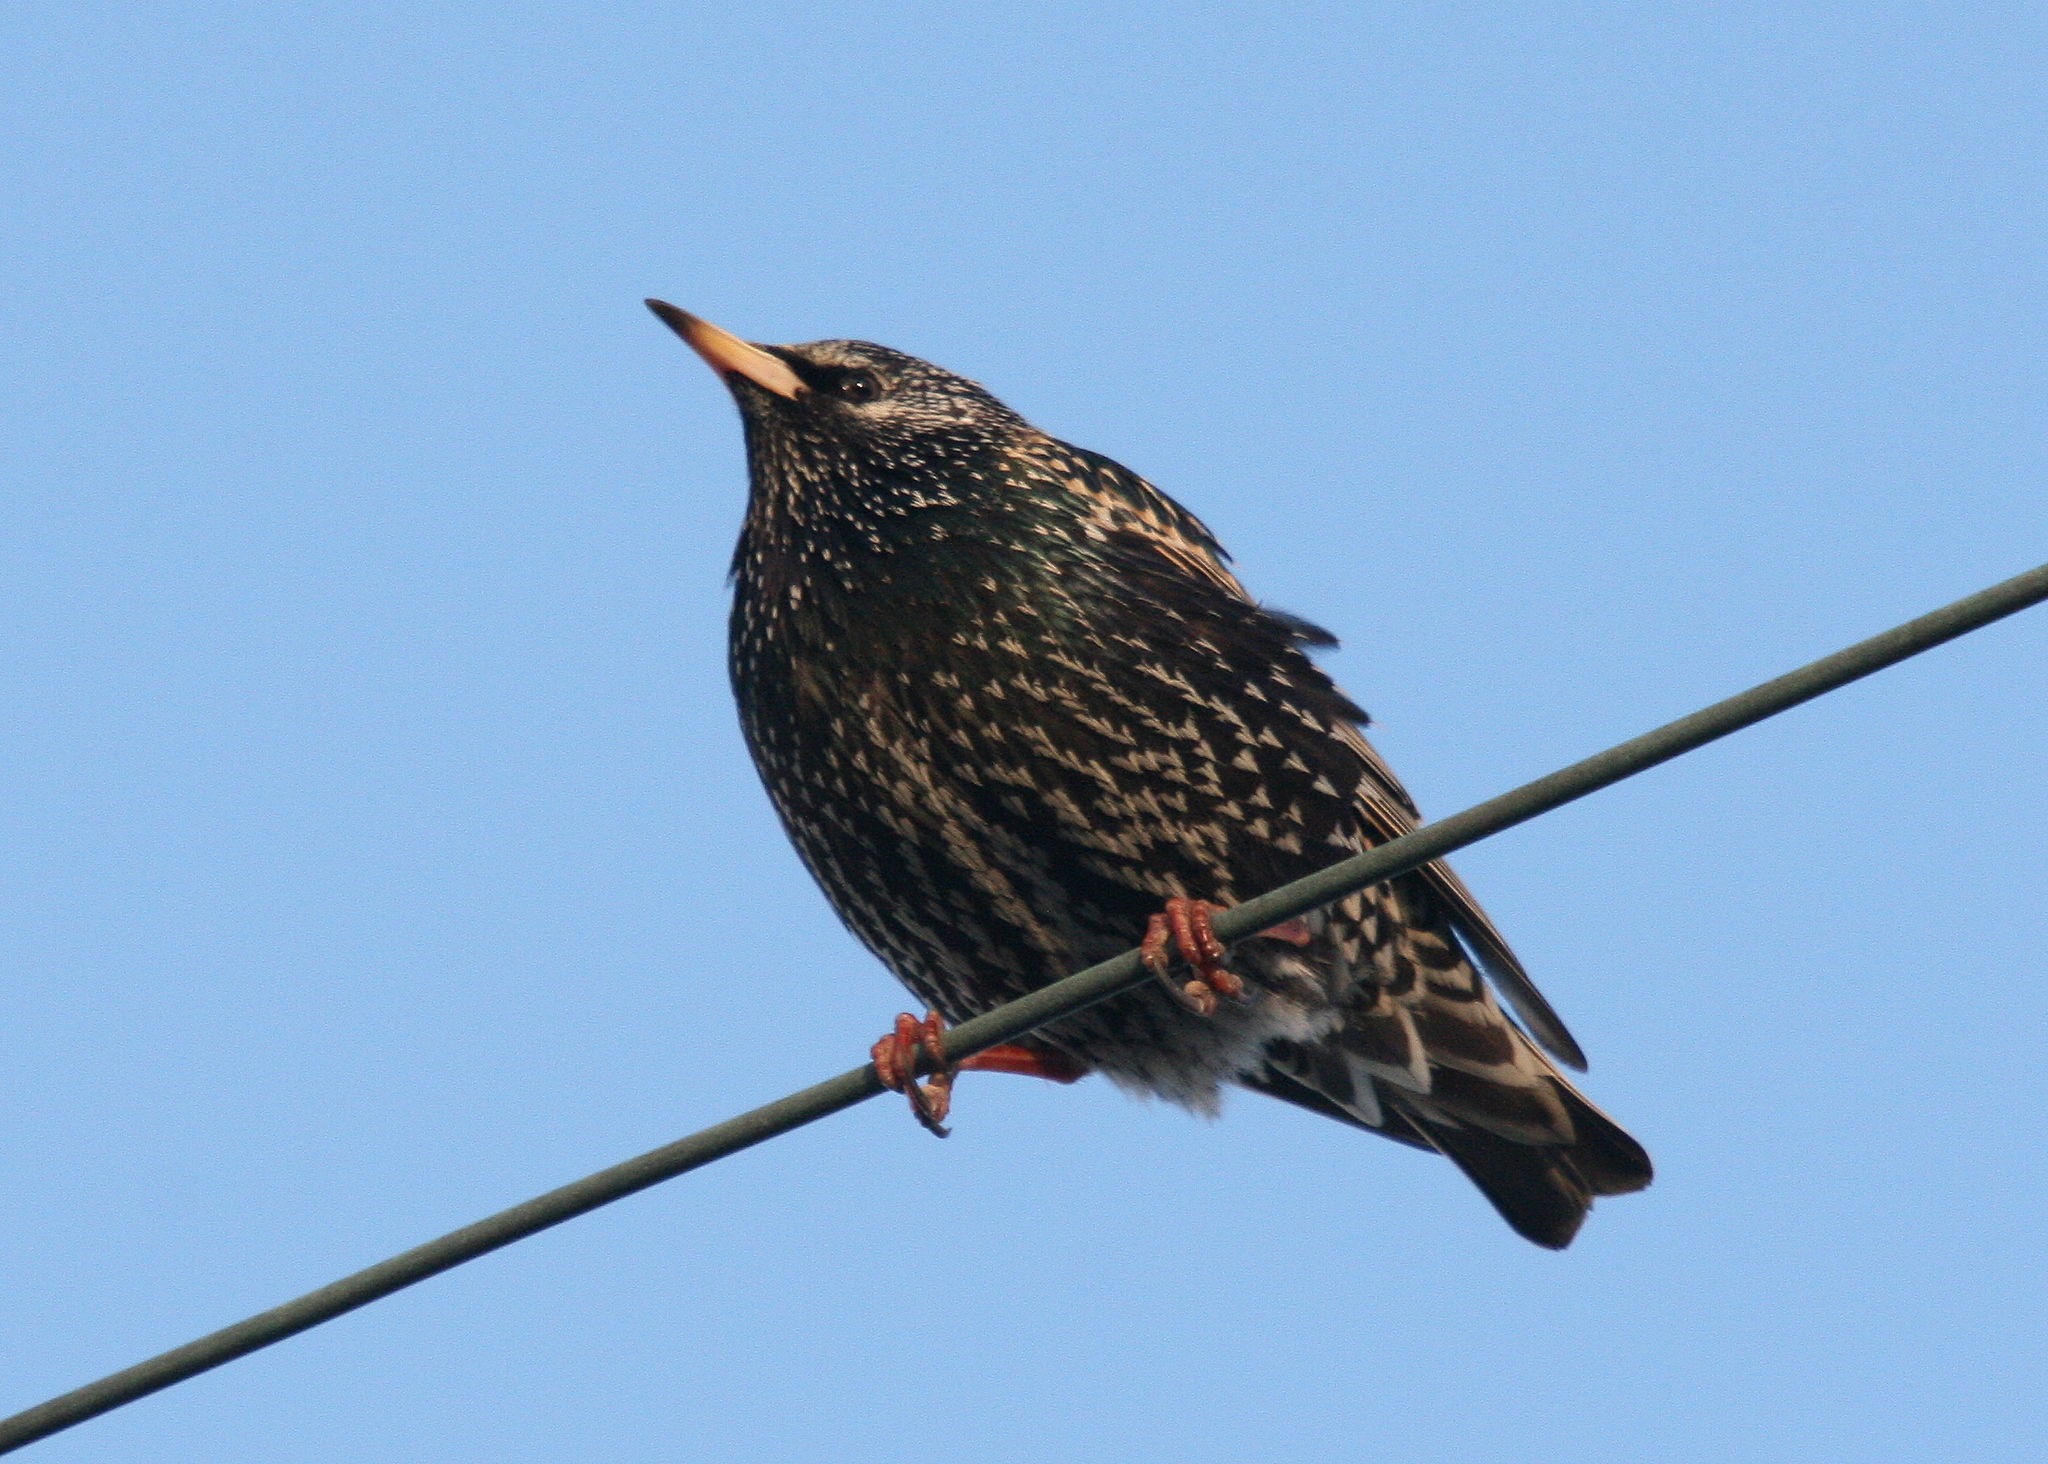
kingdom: Animalia
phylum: Chordata
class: Aves
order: Passeriformes
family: Sturnidae
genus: Sturnus
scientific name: Sturnus vulgaris
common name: Common starling
